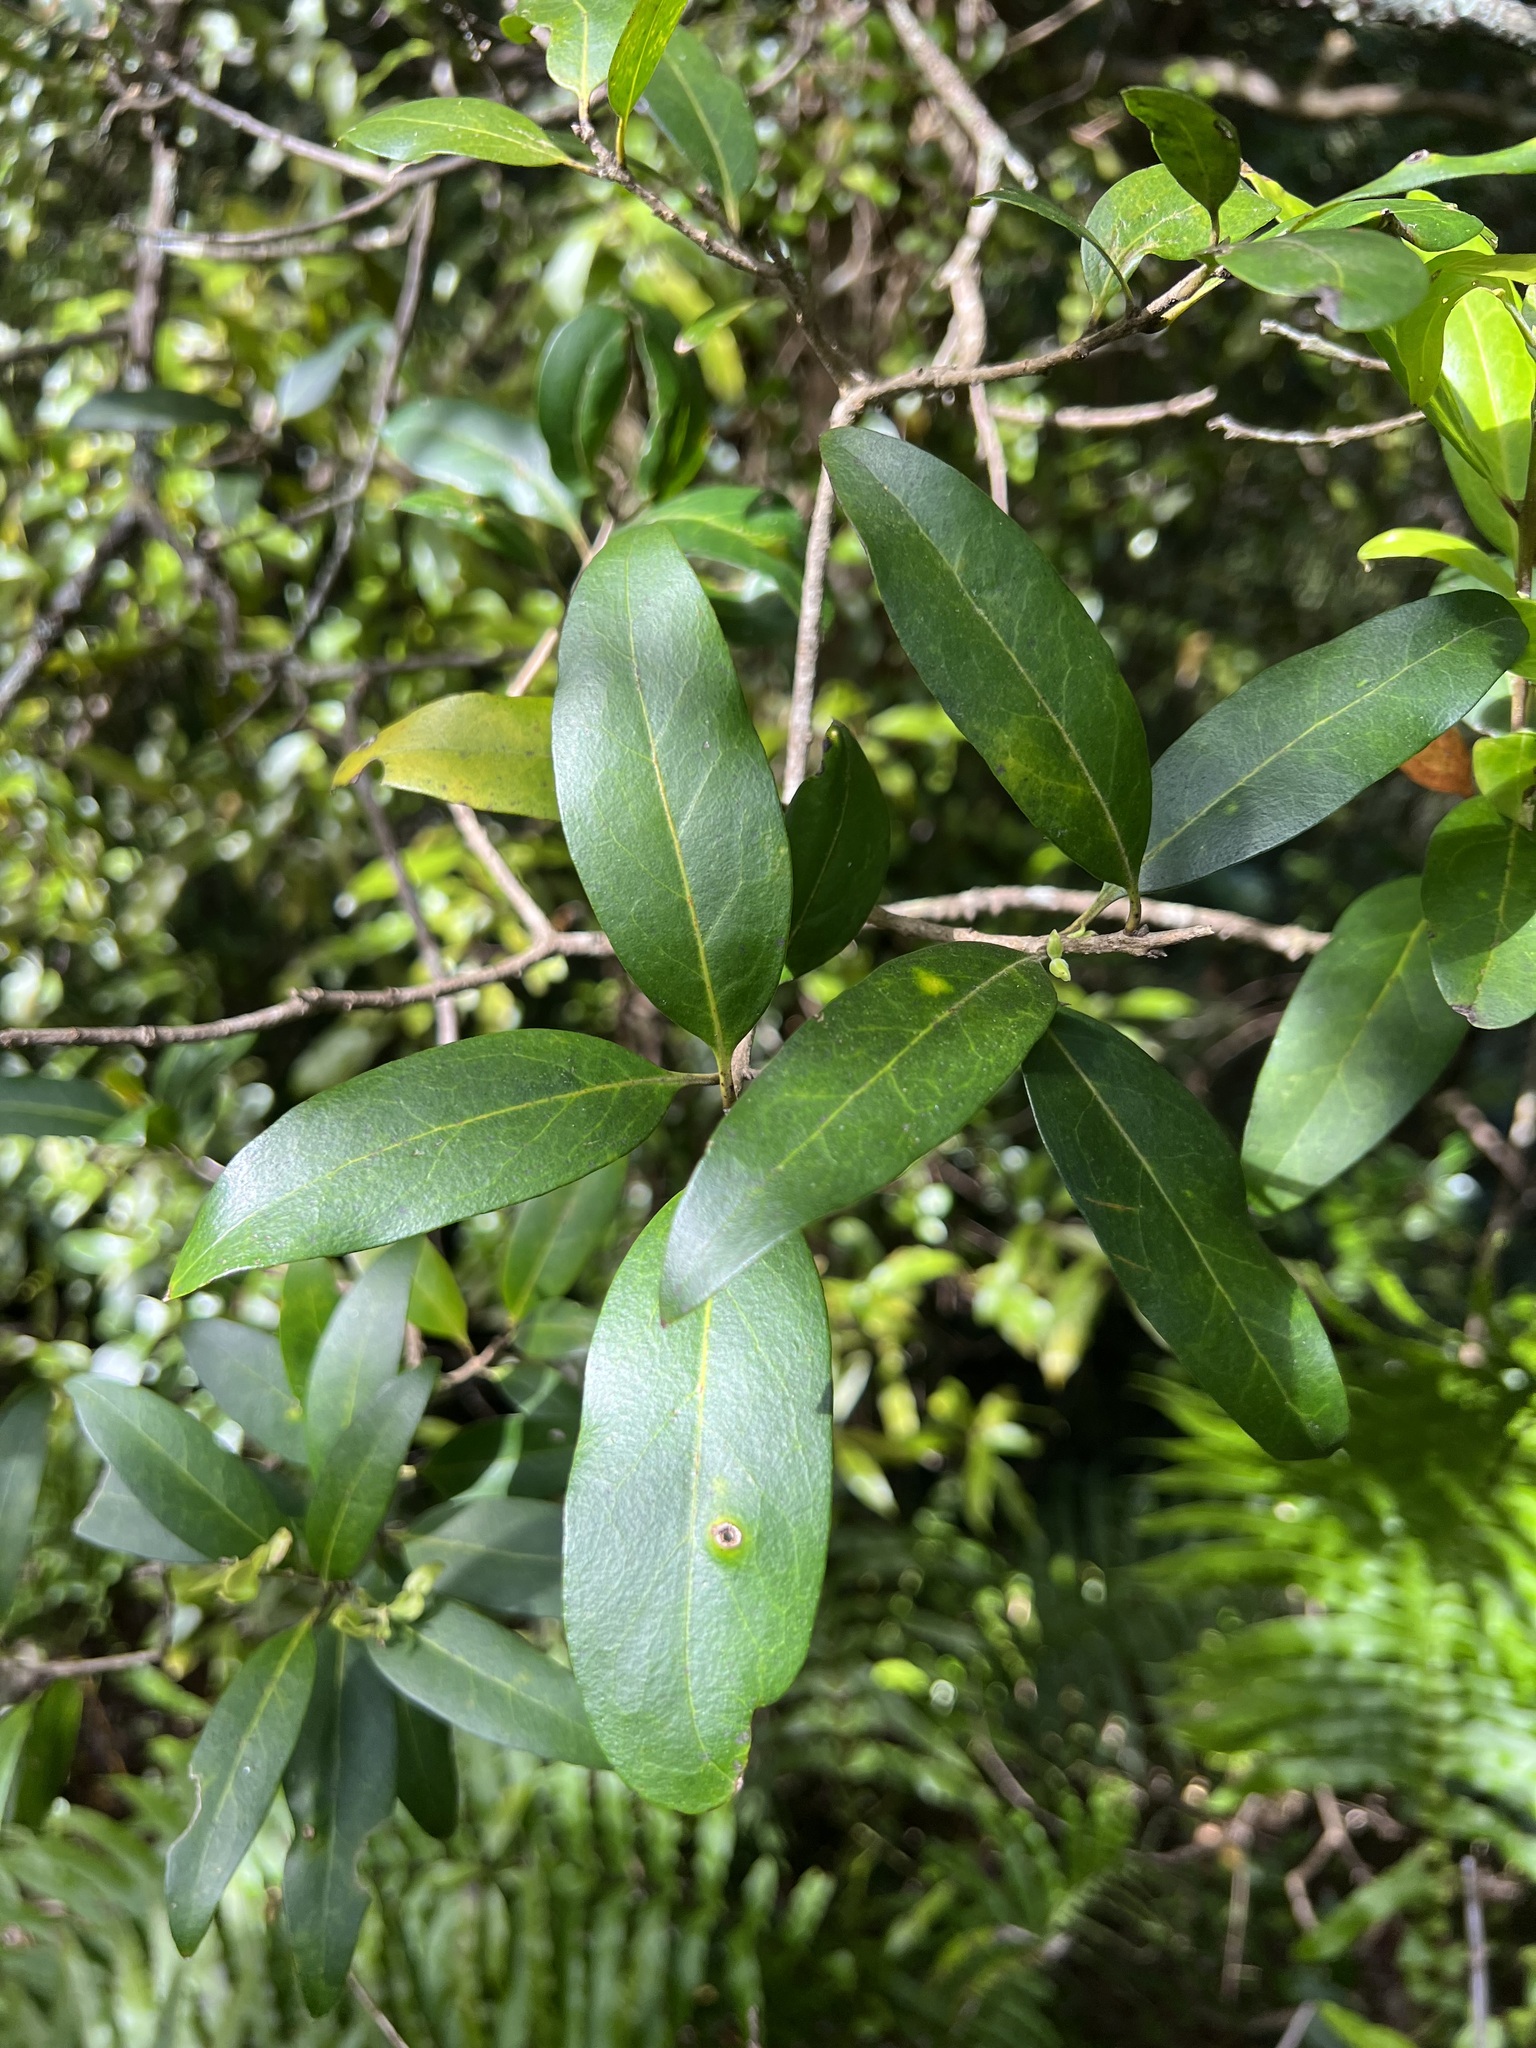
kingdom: Plantae
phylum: Tracheophyta
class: Magnoliopsida
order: Lamiales
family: Oleaceae
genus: Nestegis
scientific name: Nestegis lanceolata
